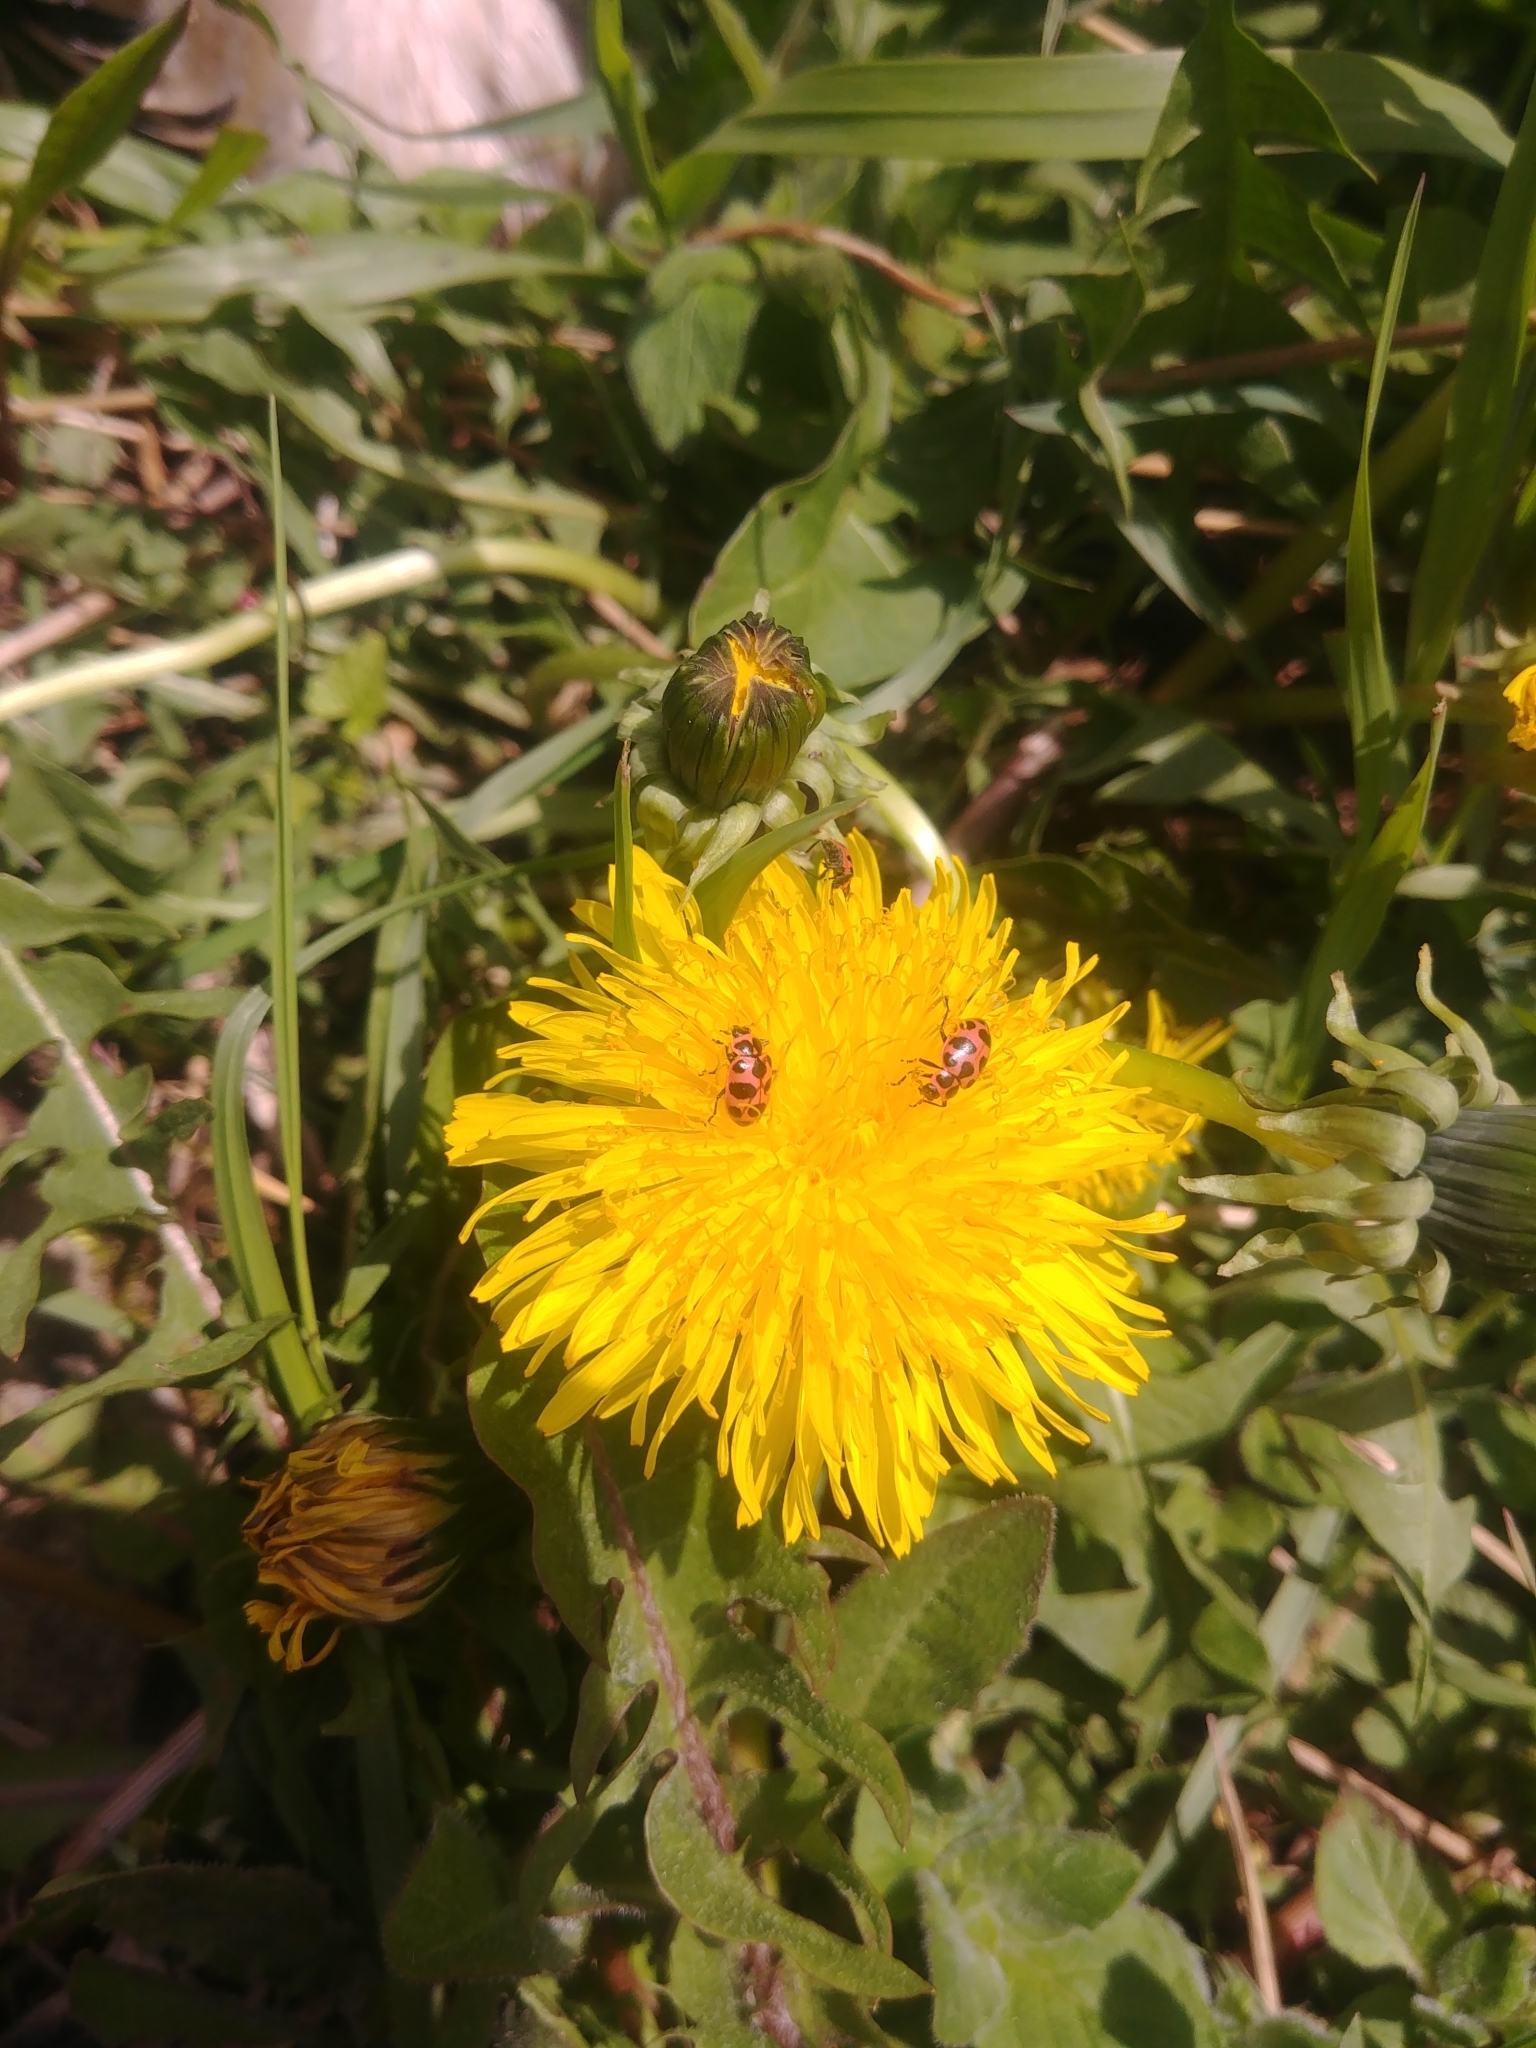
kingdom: Animalia
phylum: Arthropoda
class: Insecta
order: Coleoptera
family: Coccinellidae
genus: Coleomegilla
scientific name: Coleomegilla maculata
